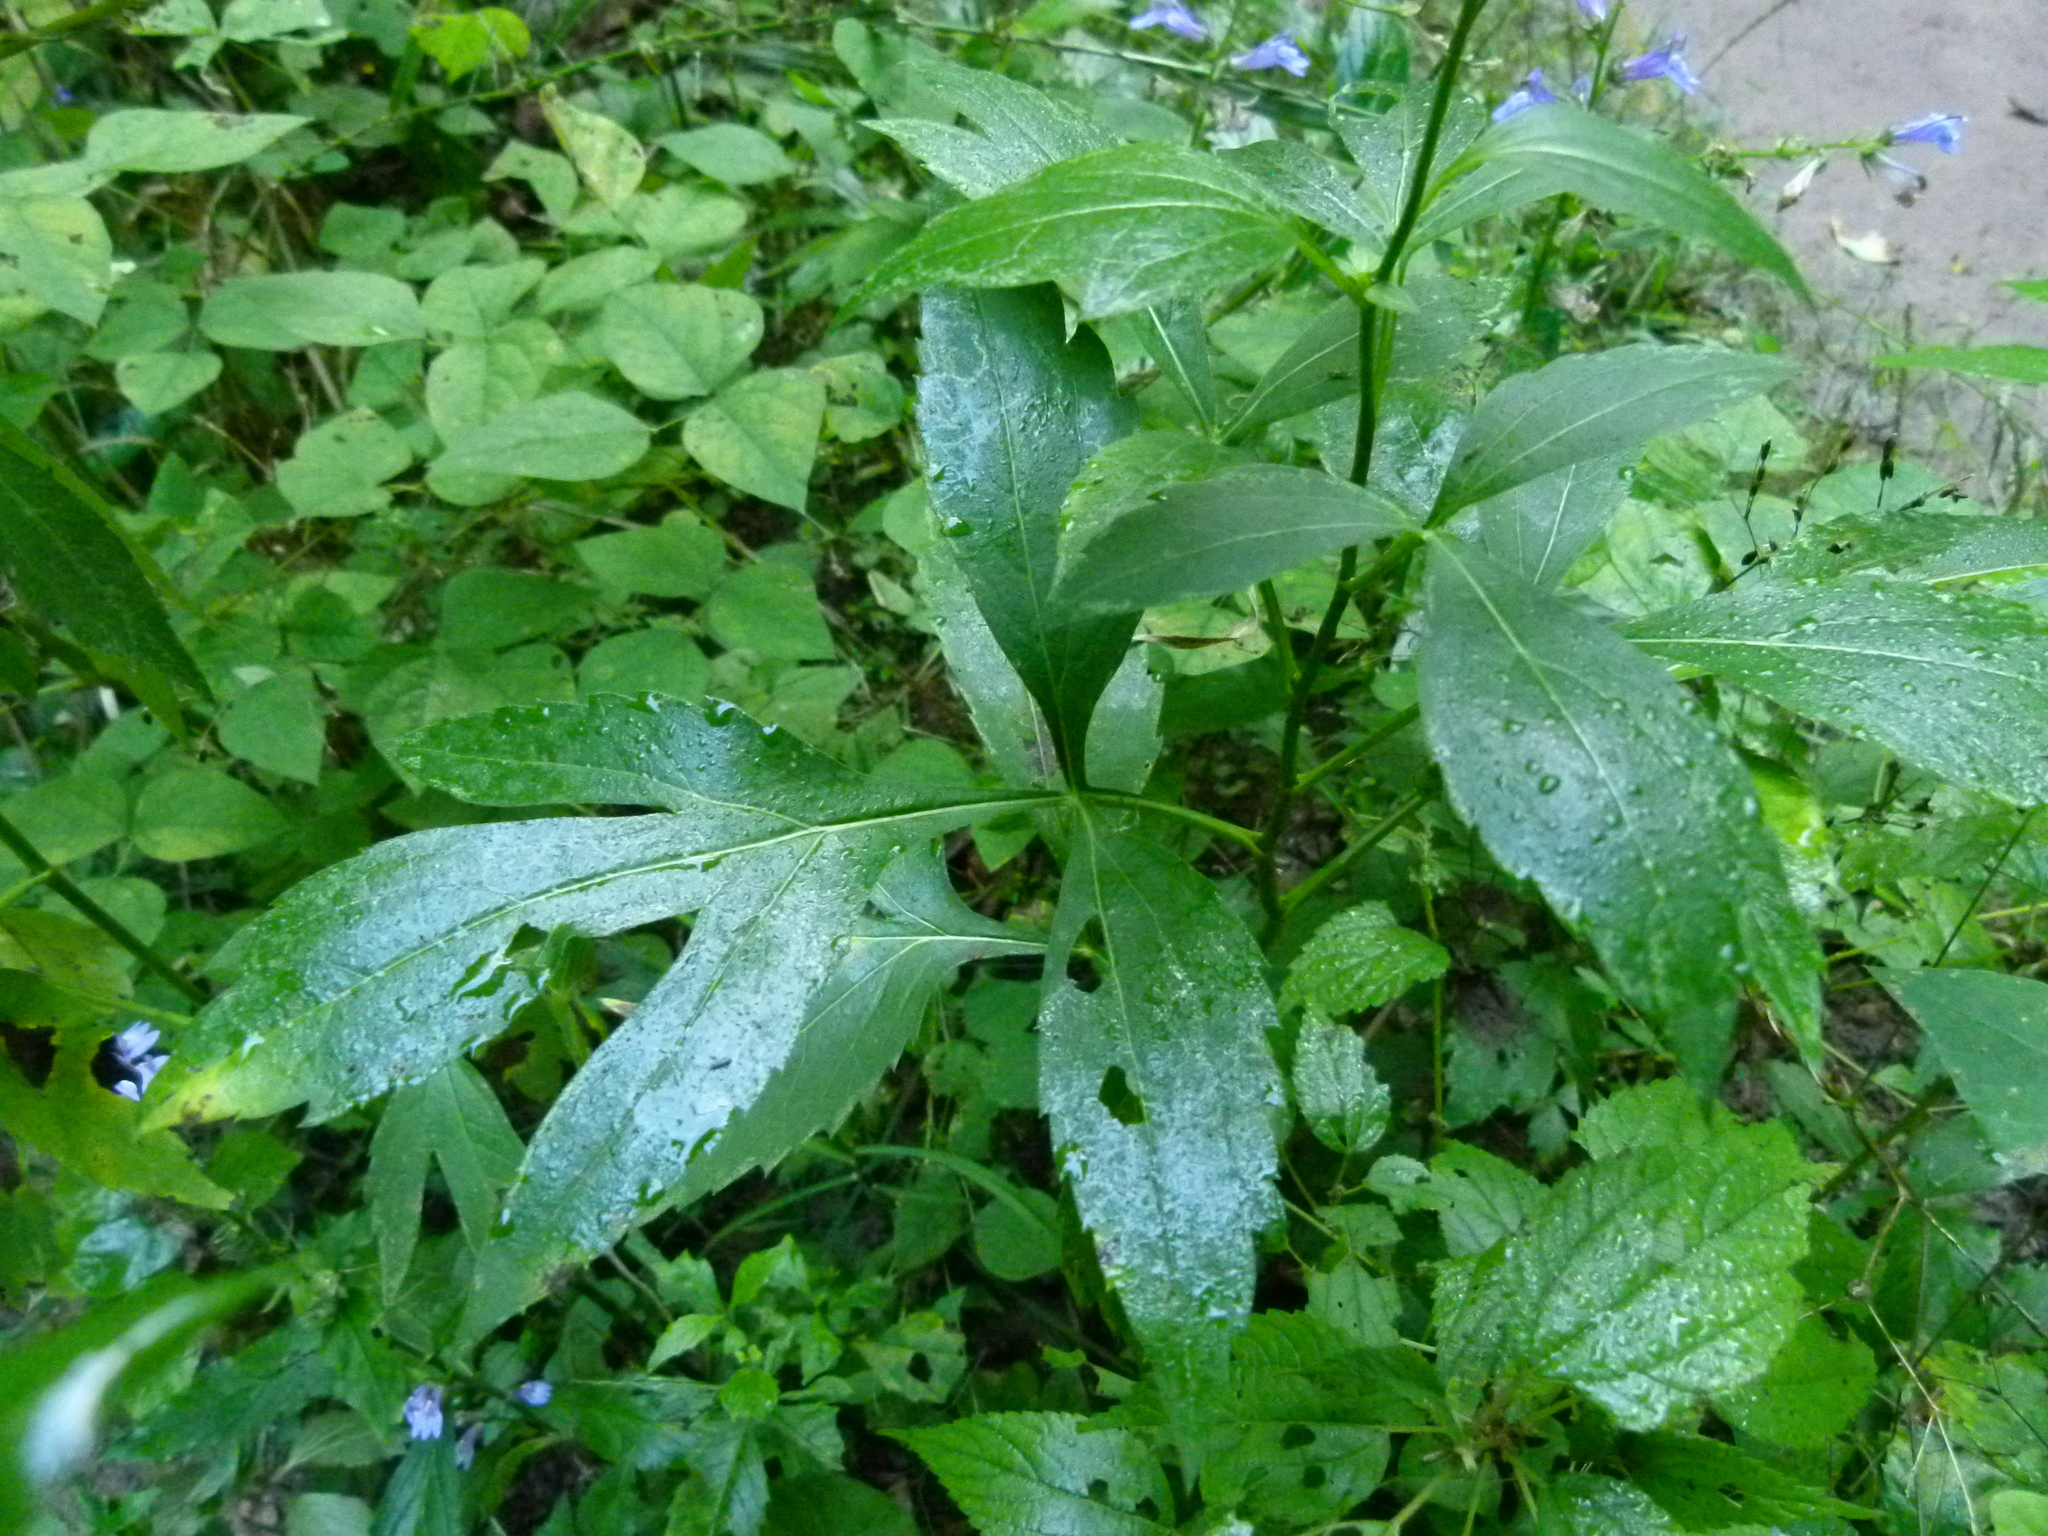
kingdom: Plantae
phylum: Tracheophyta
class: Magnoliopsida
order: Asterales
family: Asteraceae
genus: Rudbeckia
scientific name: Rudbeckia laciniata
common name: Coneflower
